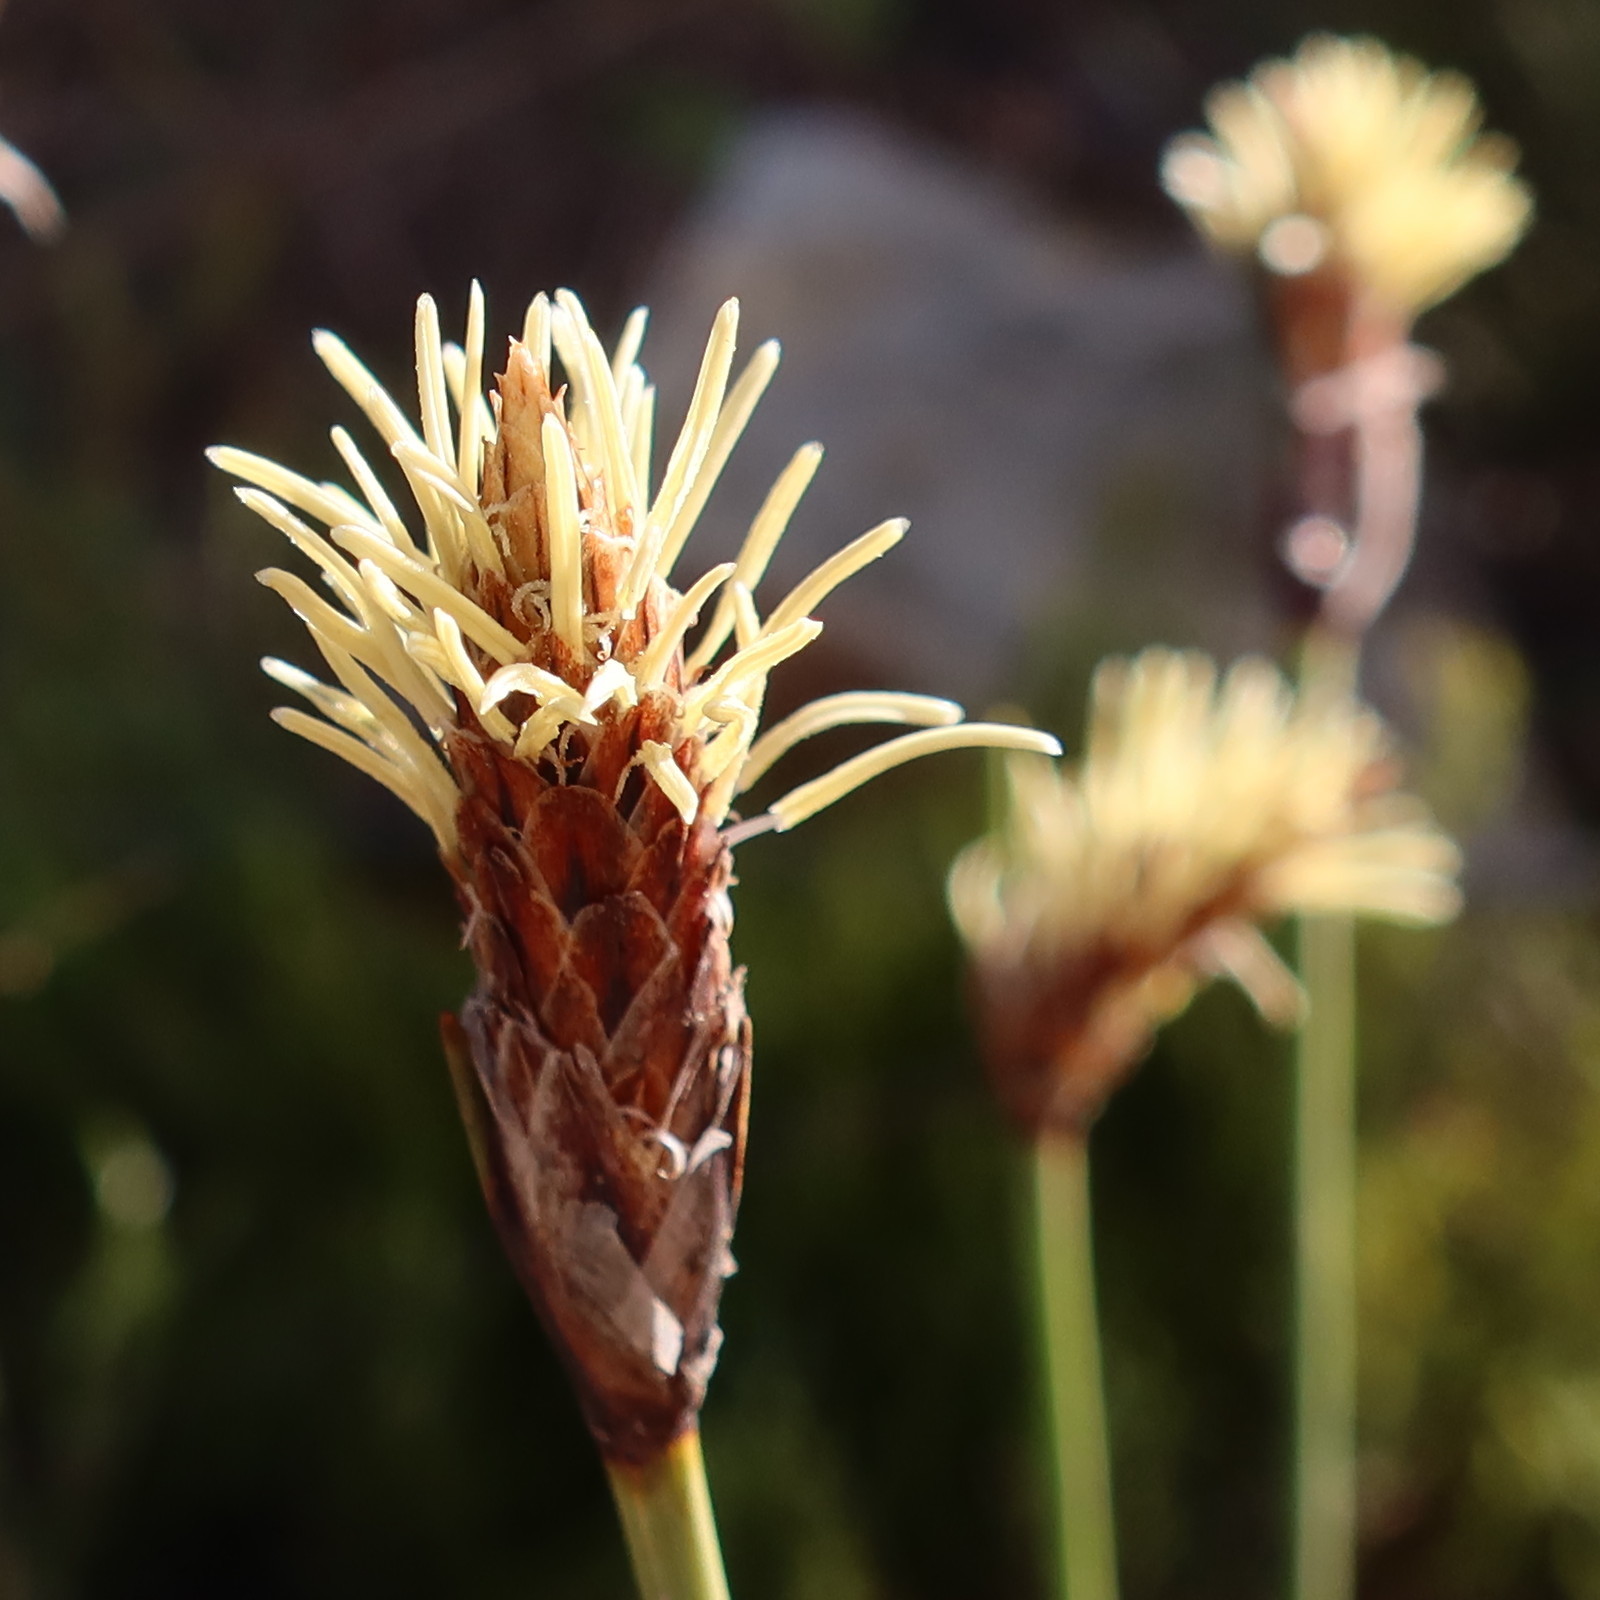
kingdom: Plantae
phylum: Tracheophyta
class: Liliopsida
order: Poales
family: Cyperaceae
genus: Ficinia
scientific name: Ficinia deusta
